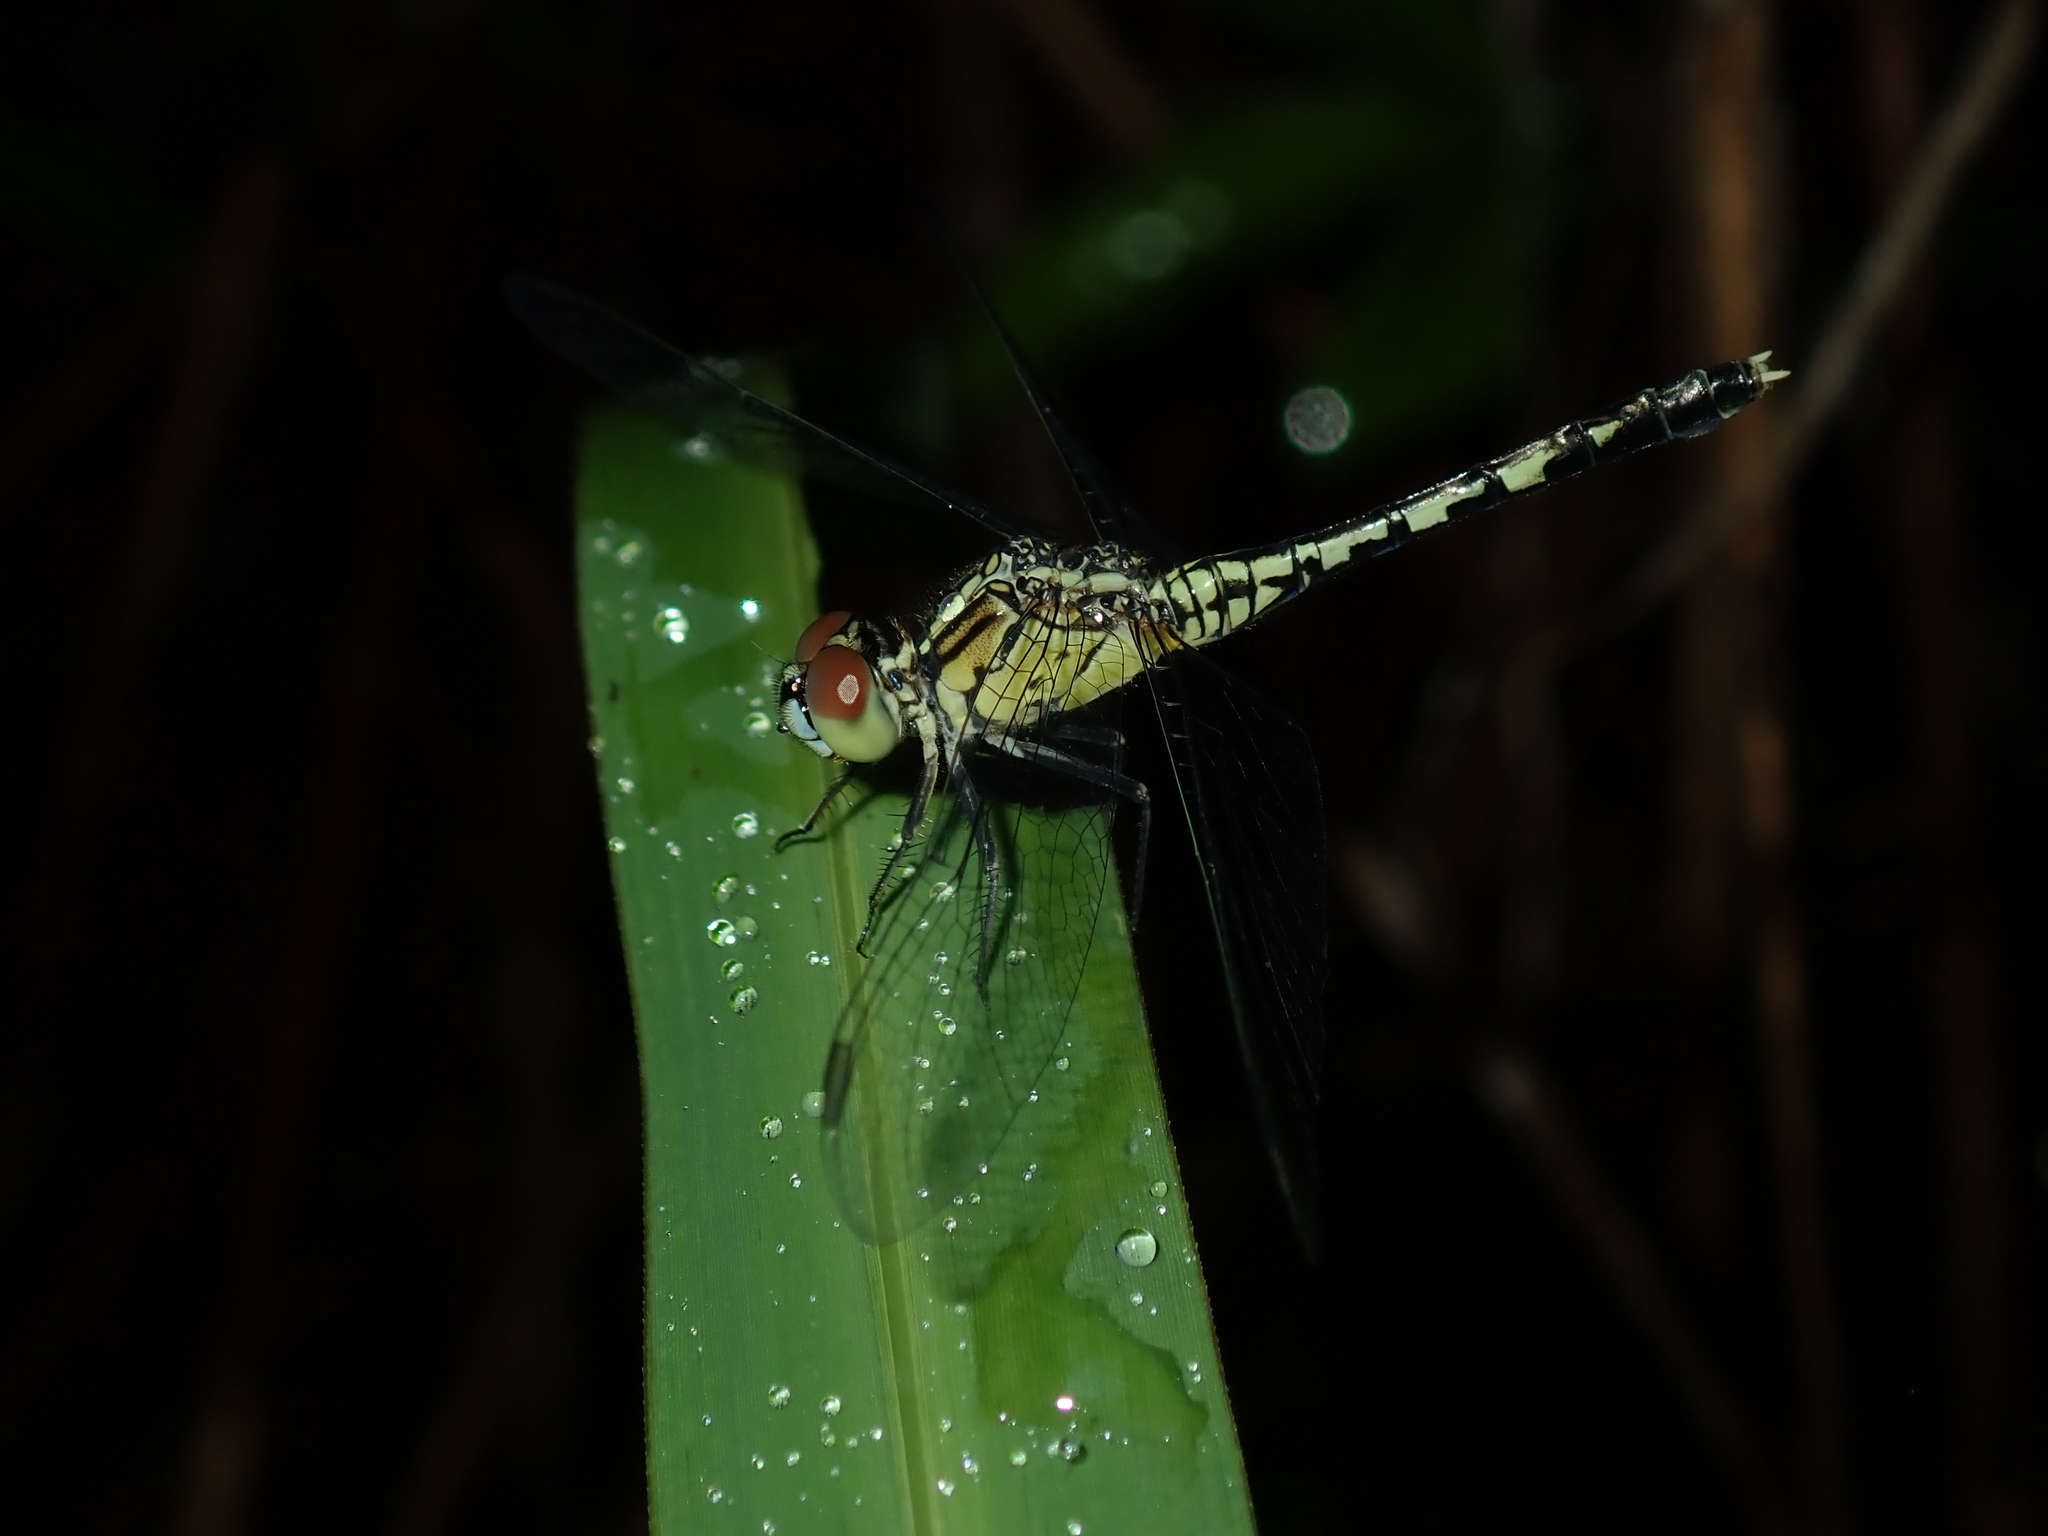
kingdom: Animalia
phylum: Arthropoda
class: Insecta
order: Odonata
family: Libellulidae
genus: Diplacodes
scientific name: Diplacodes trivialis
